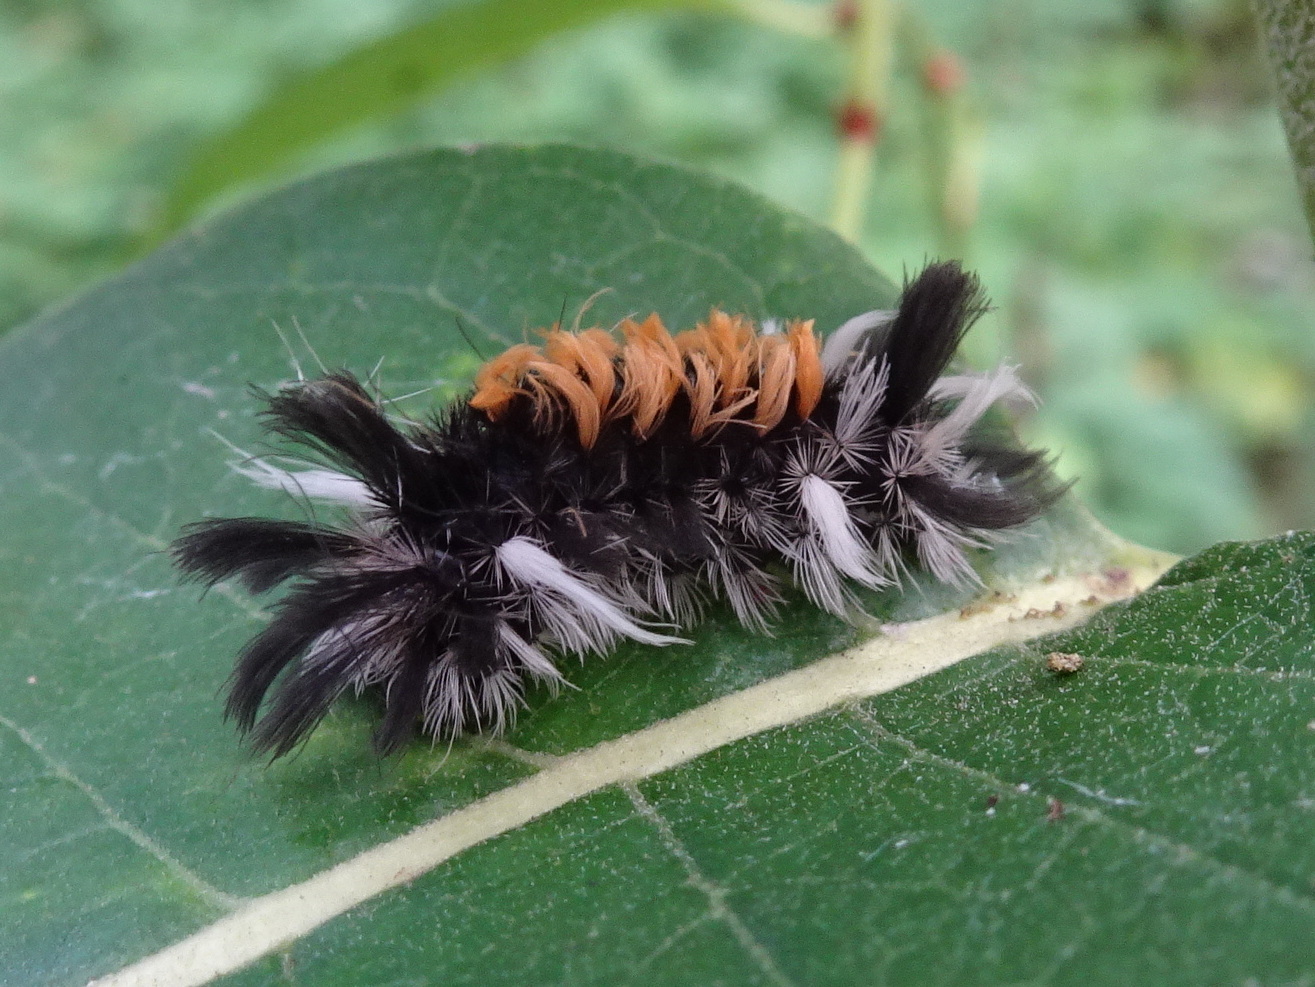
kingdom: Animalia
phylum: Arthropoda
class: Insecta
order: Lepidoptera
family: Erebidae
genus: Euchaetes
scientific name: Euchaetes egle
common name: Milkweed tussock moth
